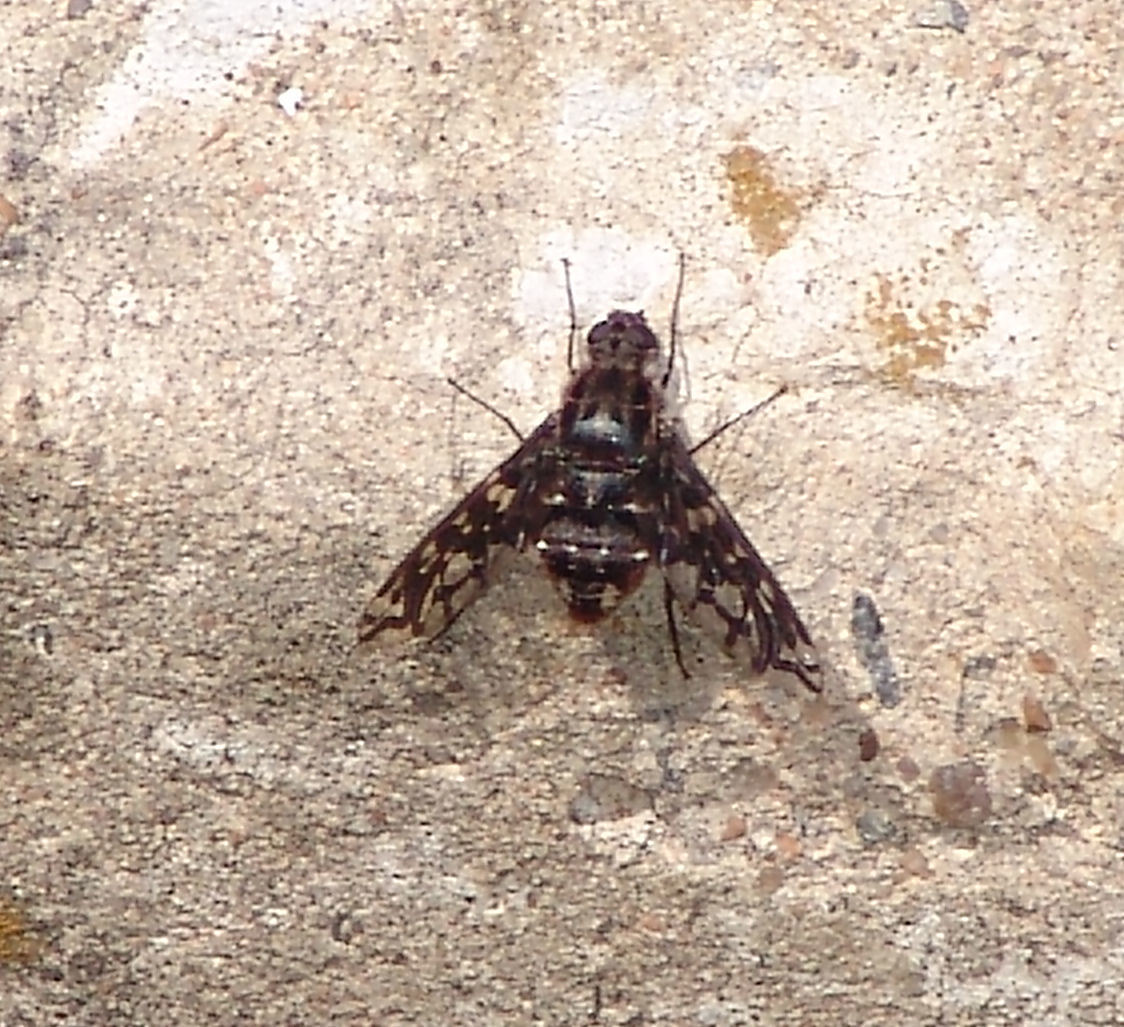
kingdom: Animalia
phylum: Arthropoda
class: Insecta
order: Diptera
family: Bombyliidae
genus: Xenox
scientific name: Xenox tigrinus
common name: Tiger bee fly
